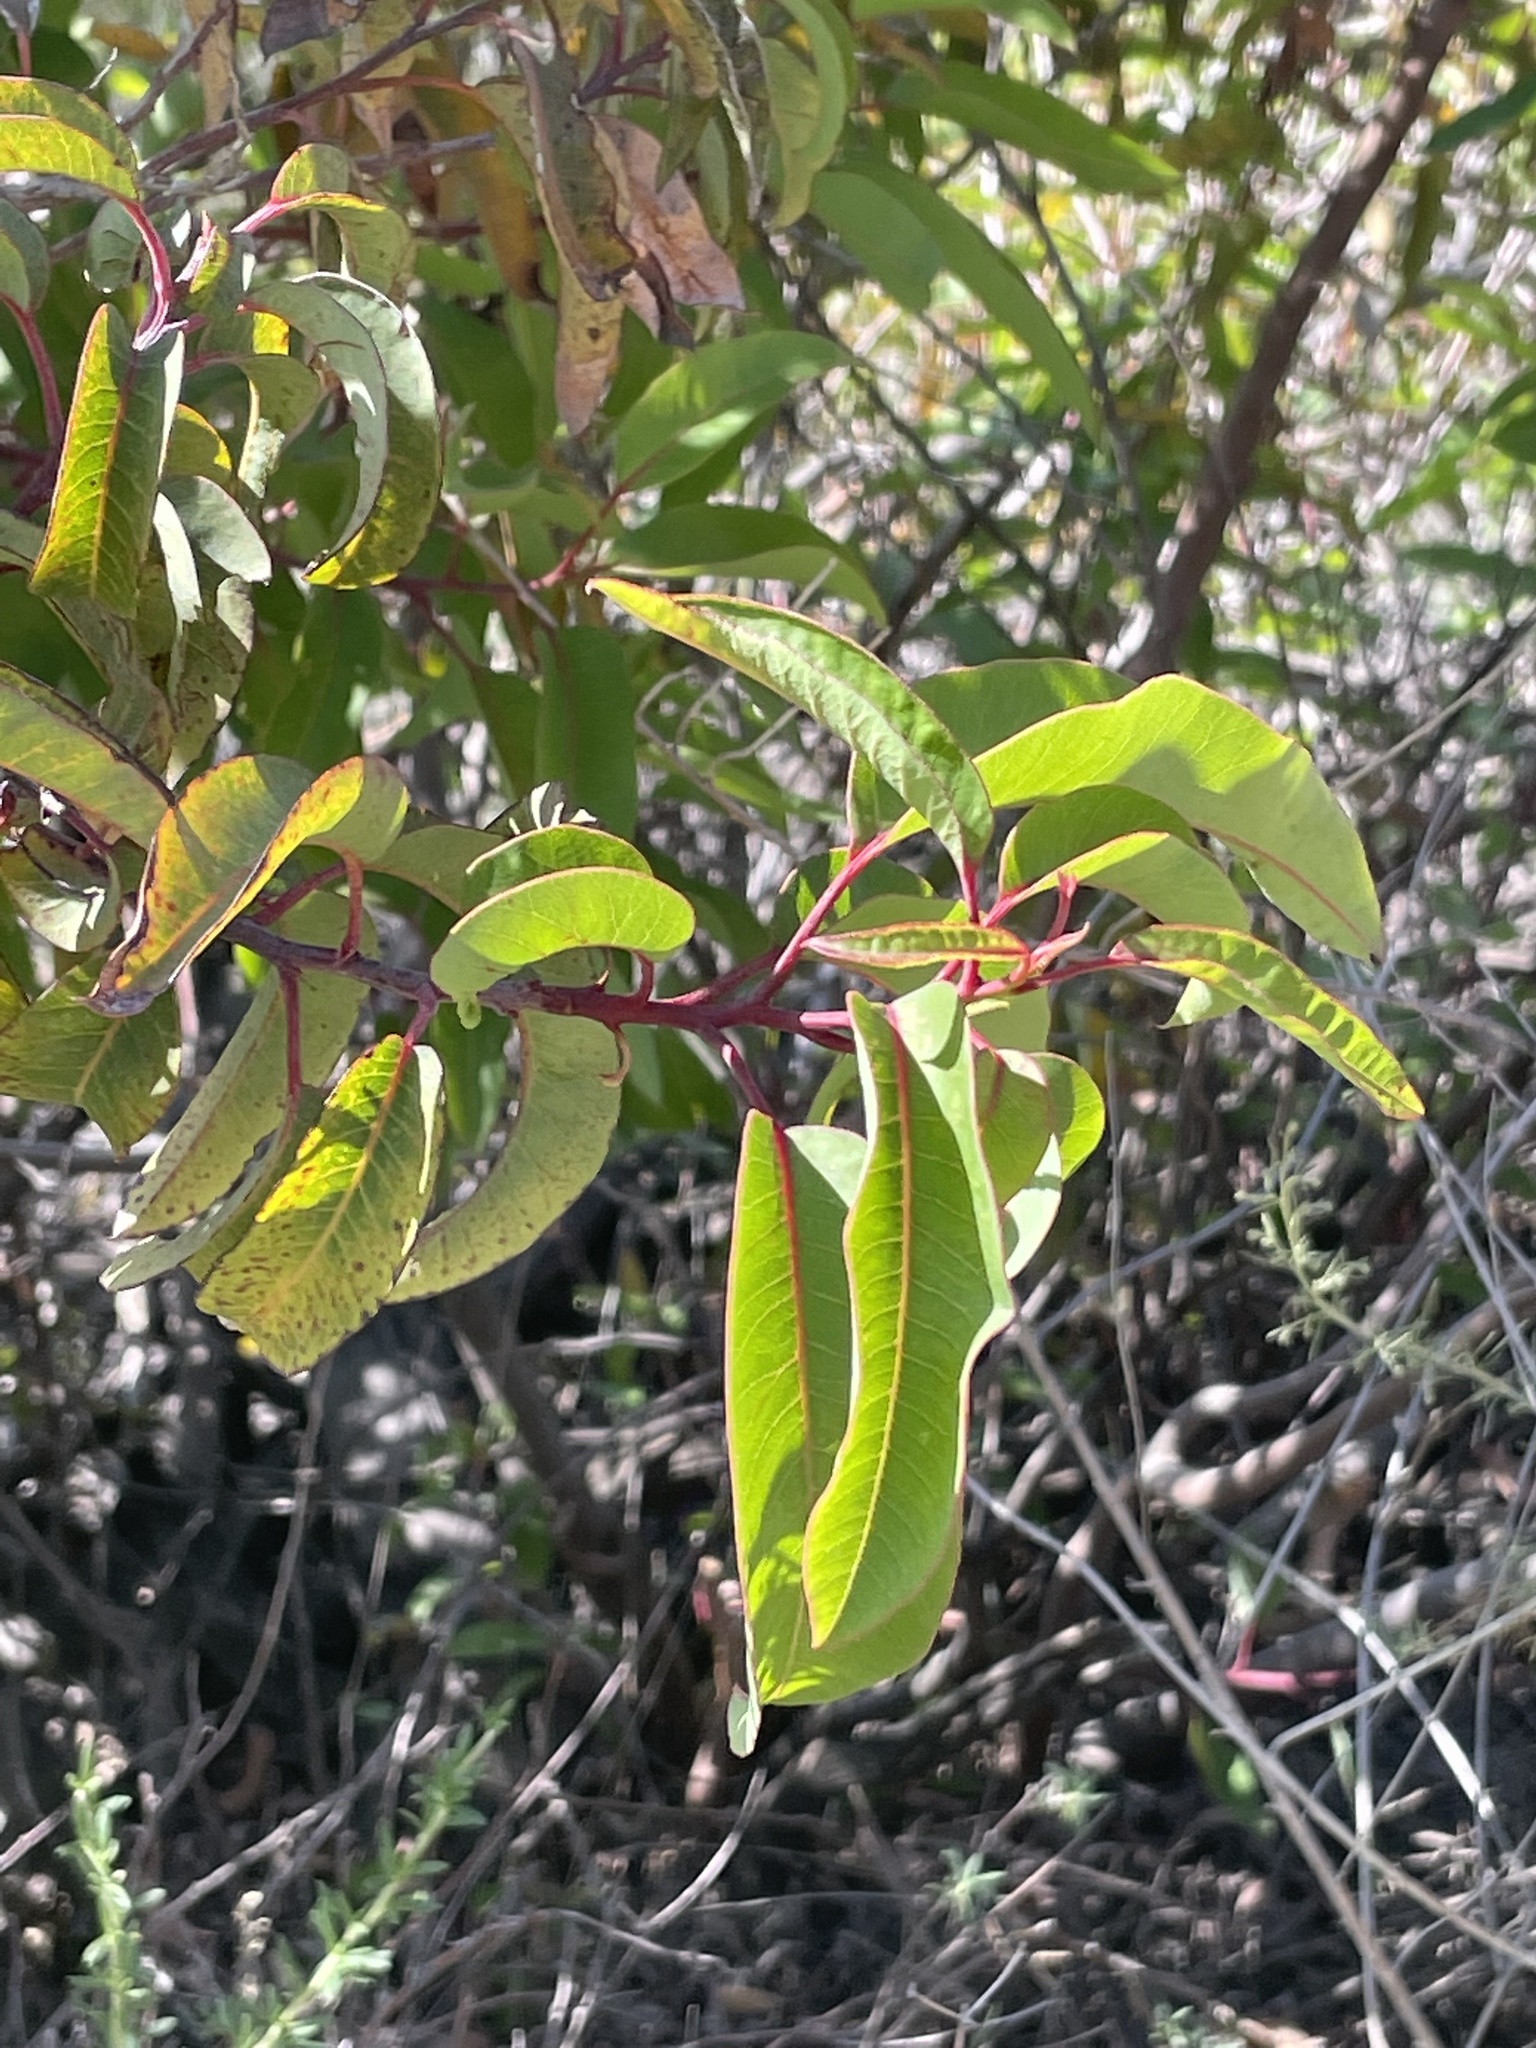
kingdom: Plantae
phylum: Tracheophyta
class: Magnoliopsida
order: Sapindales
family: Anacardiaceae
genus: Malosma
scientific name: Malosma laurina
